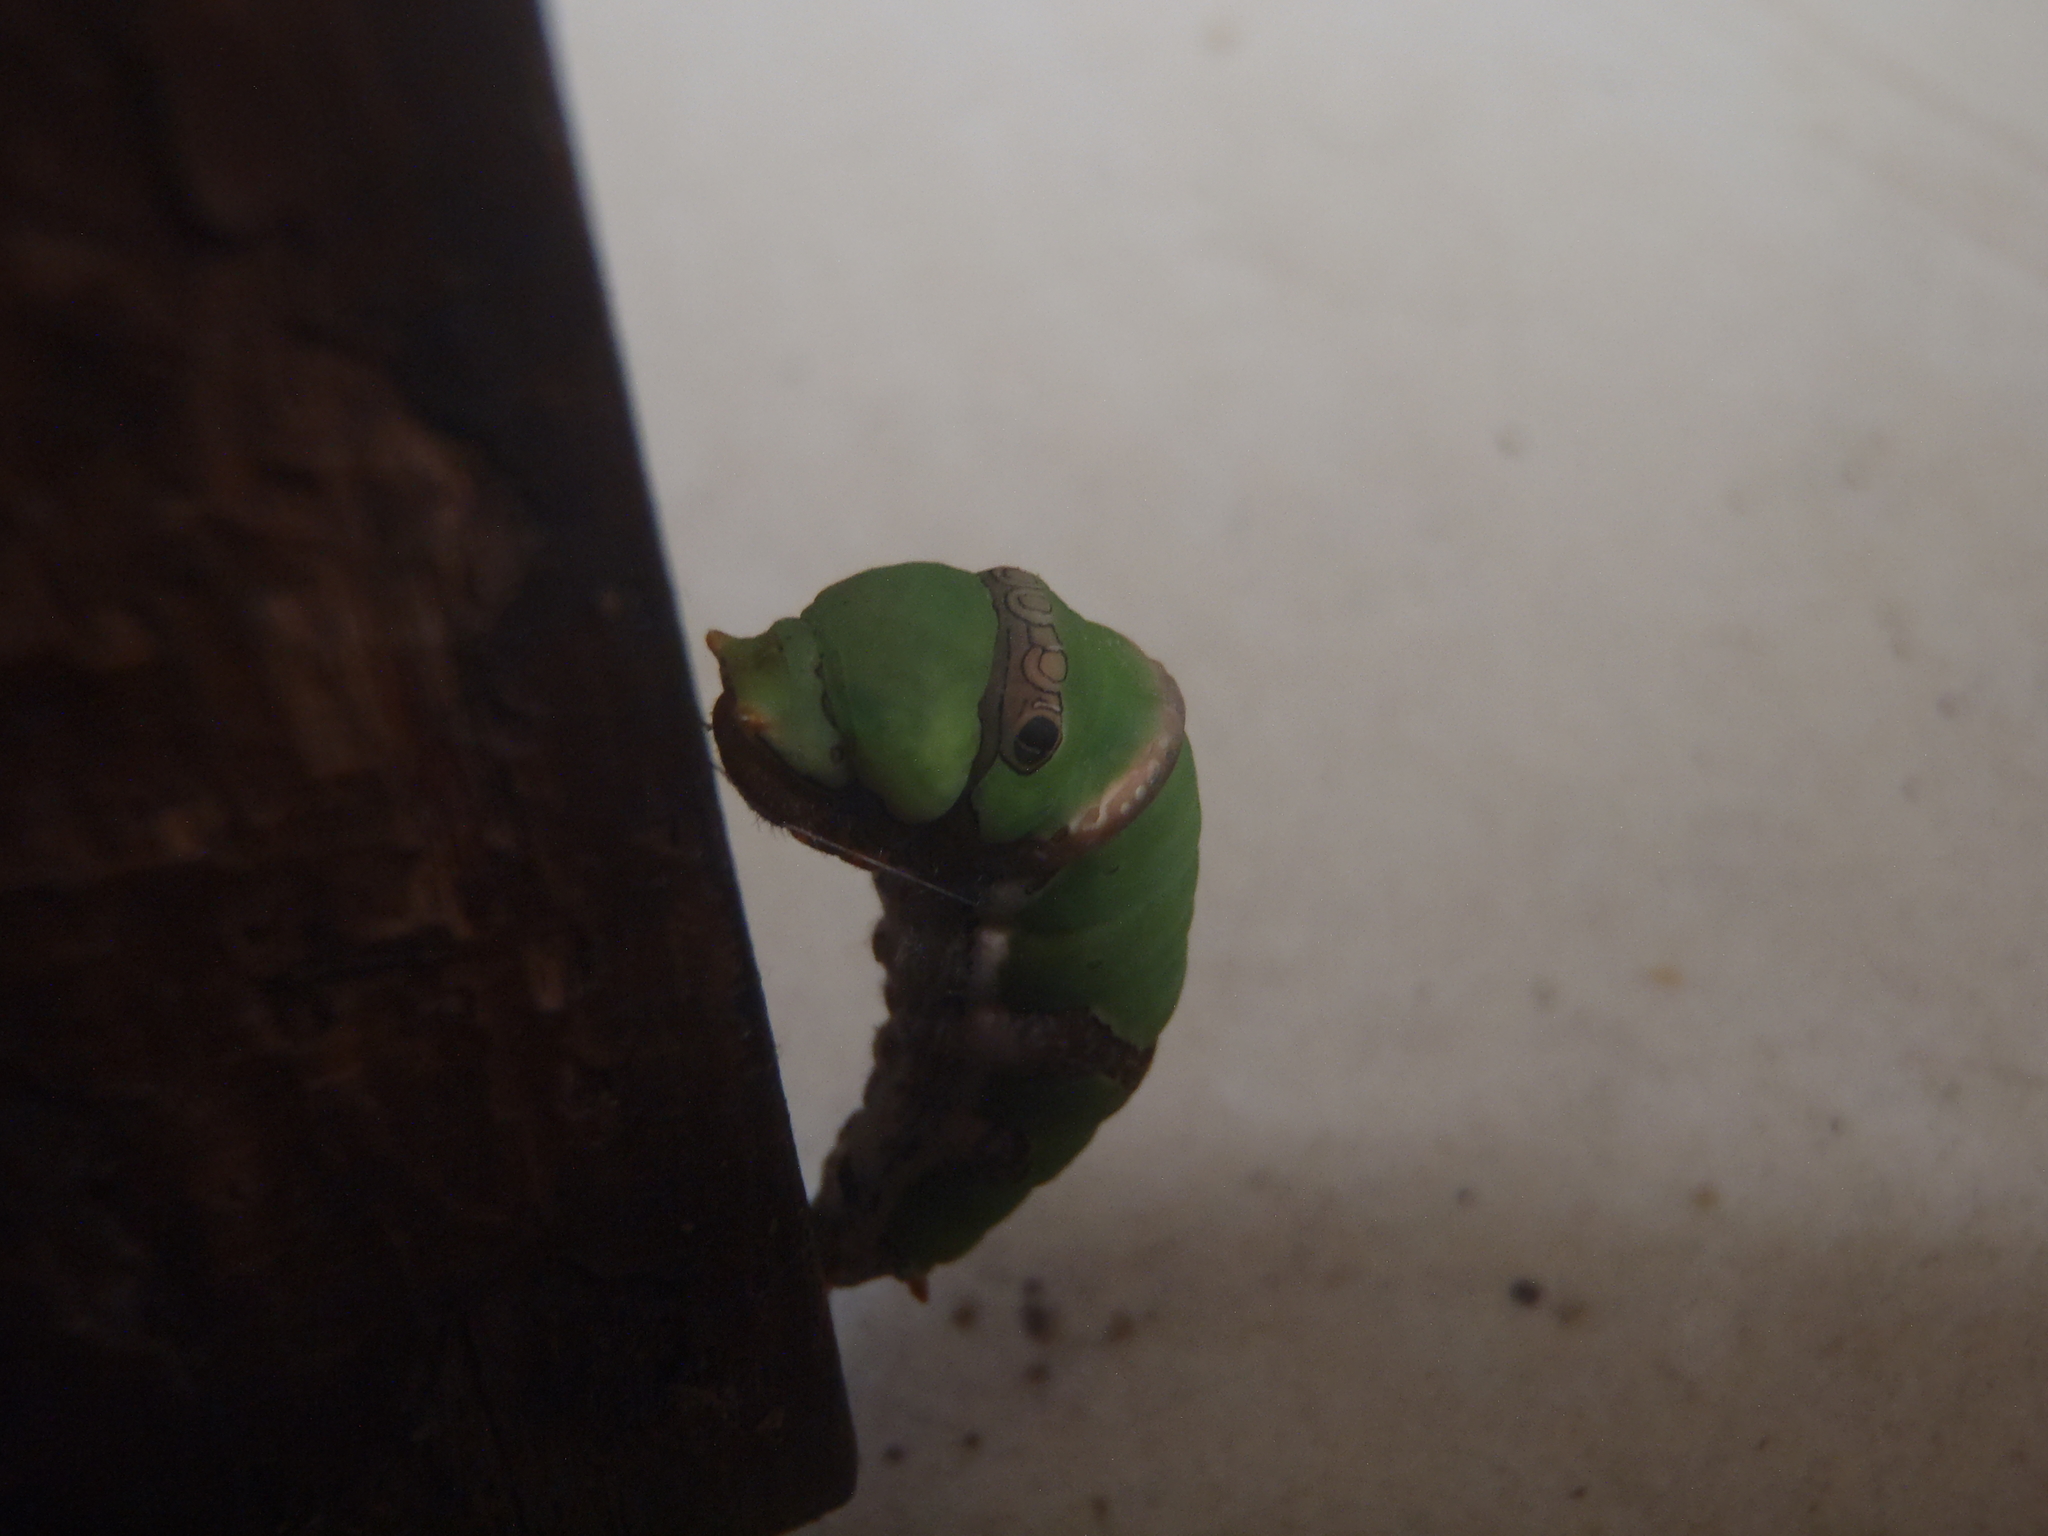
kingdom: Animalia
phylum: Arthropoda
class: Insecta
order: Lepidoptera
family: Papilionidae
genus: Papilio
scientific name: Papilio demoleus
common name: Lime butterfly
